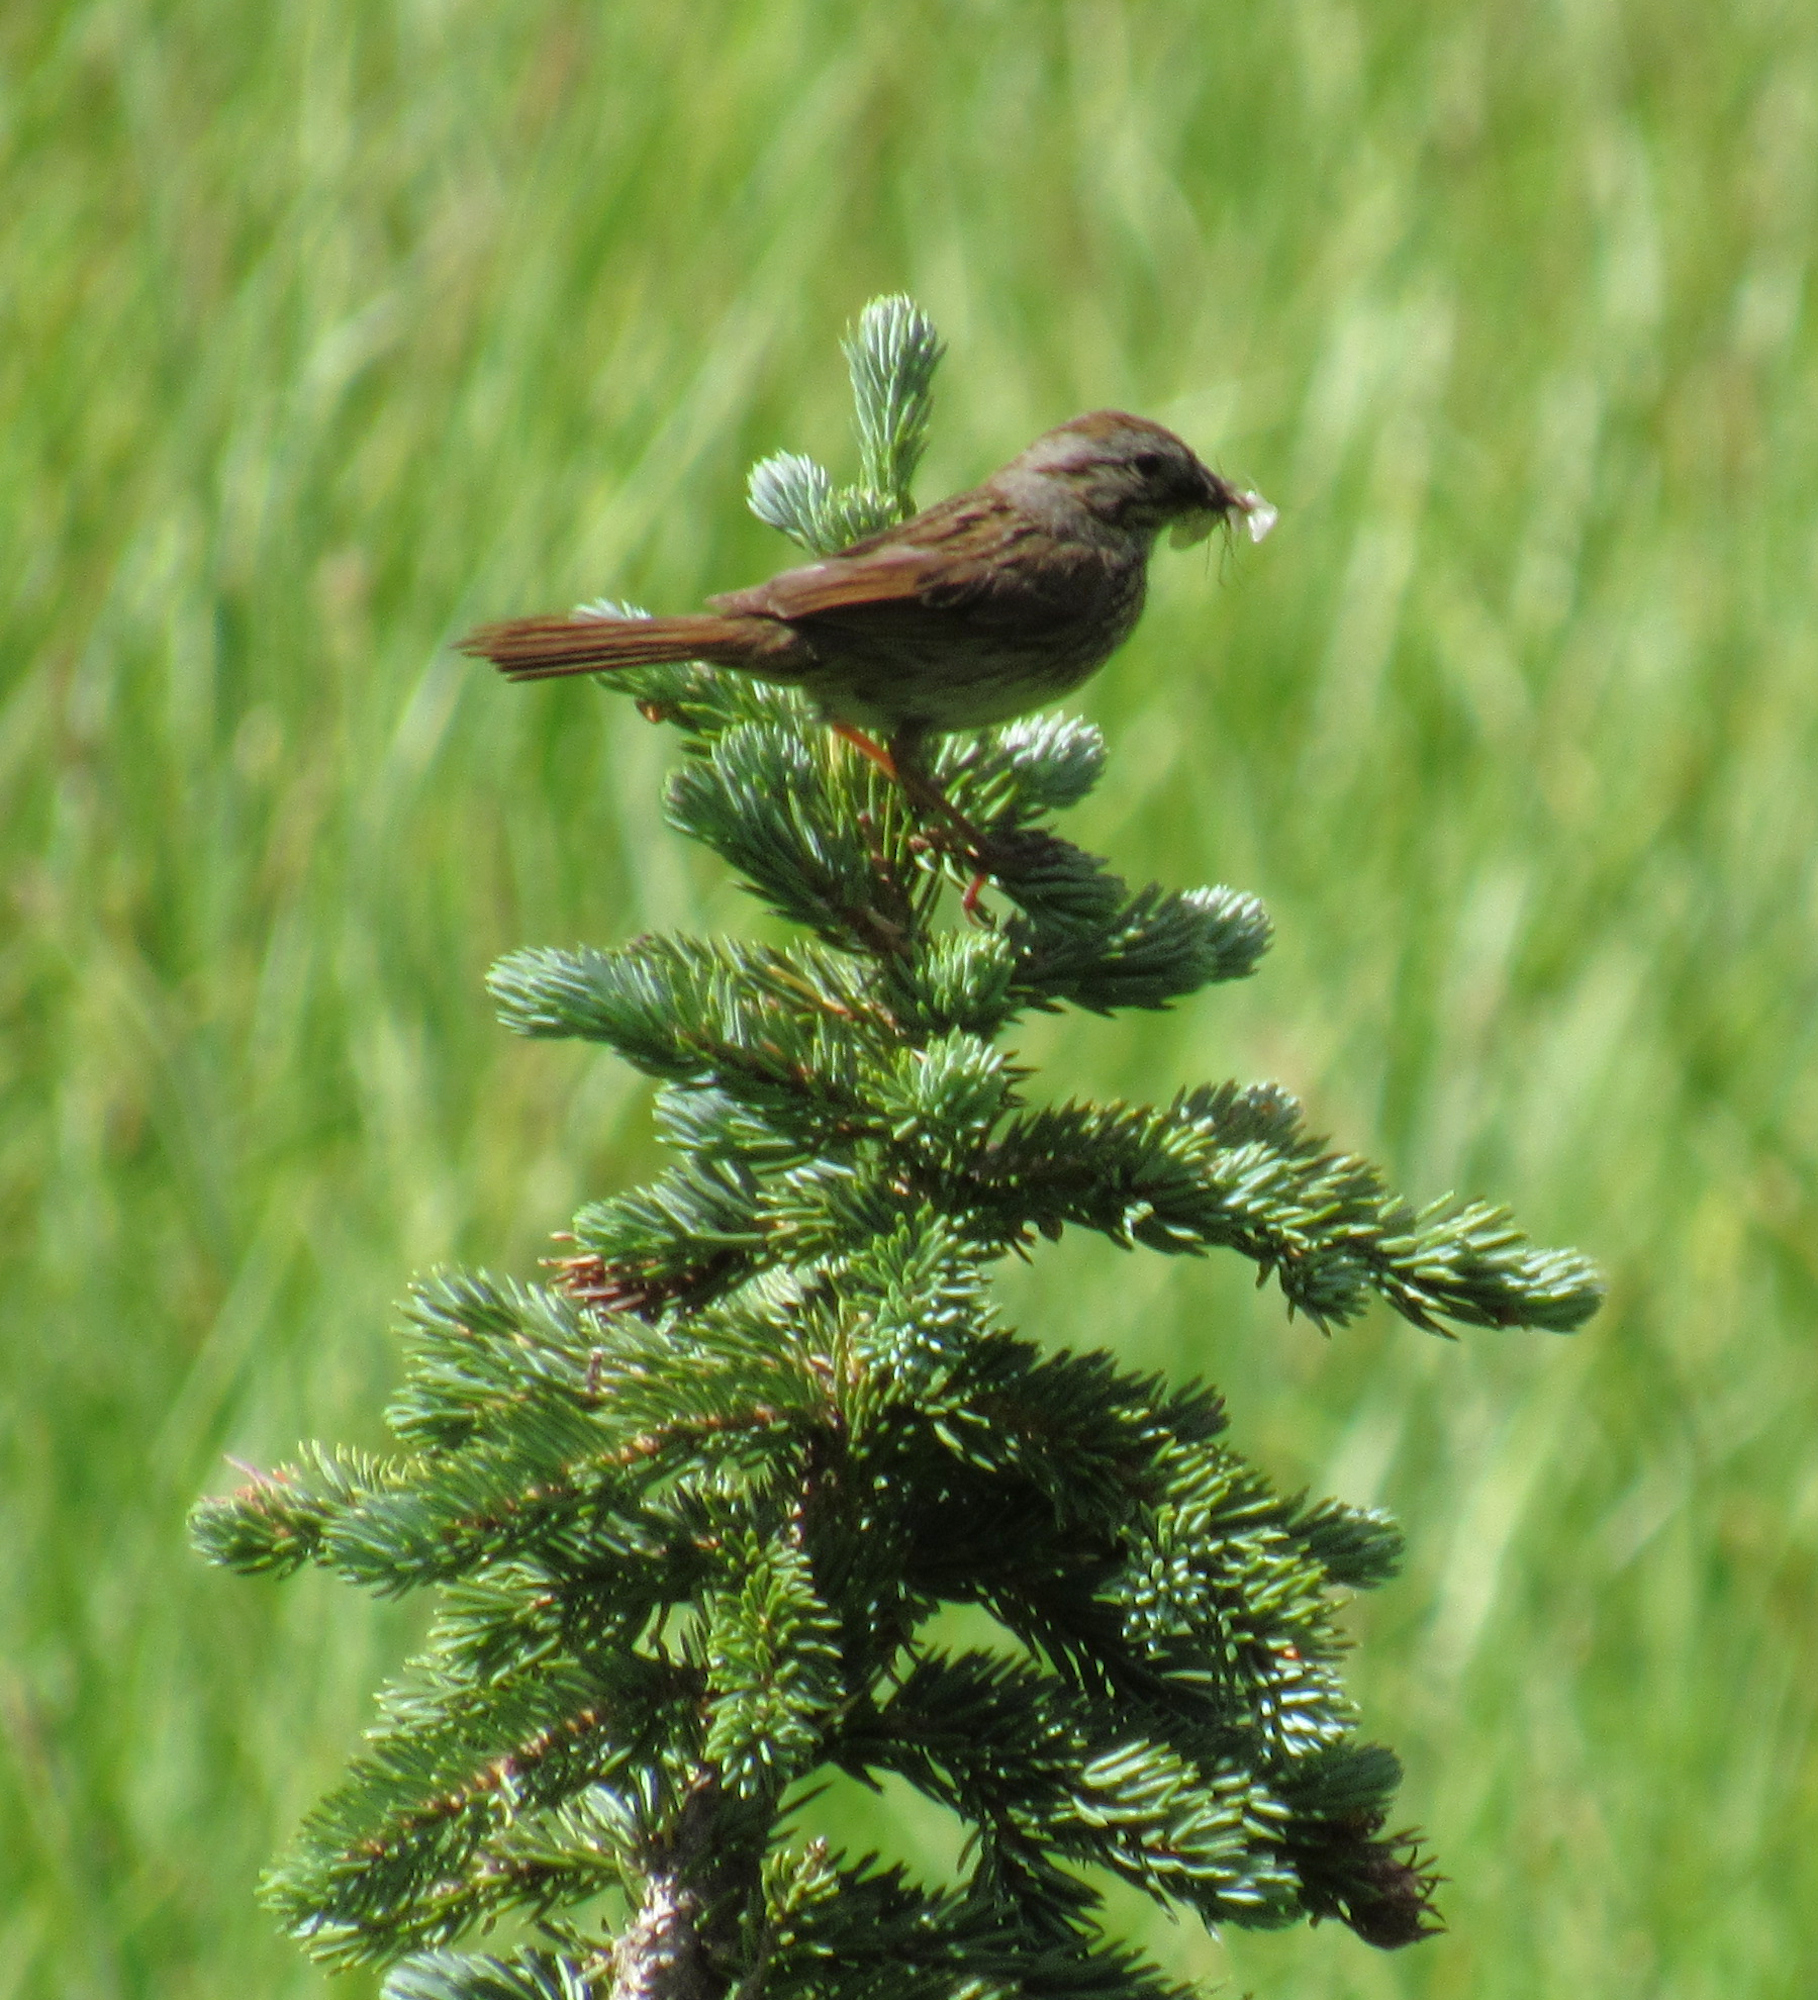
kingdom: Animalia
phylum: Chordata
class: Aves
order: Passeriformes
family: Passerellidae
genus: Melospiza
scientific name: Melospiza melodia
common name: Song sparrow
